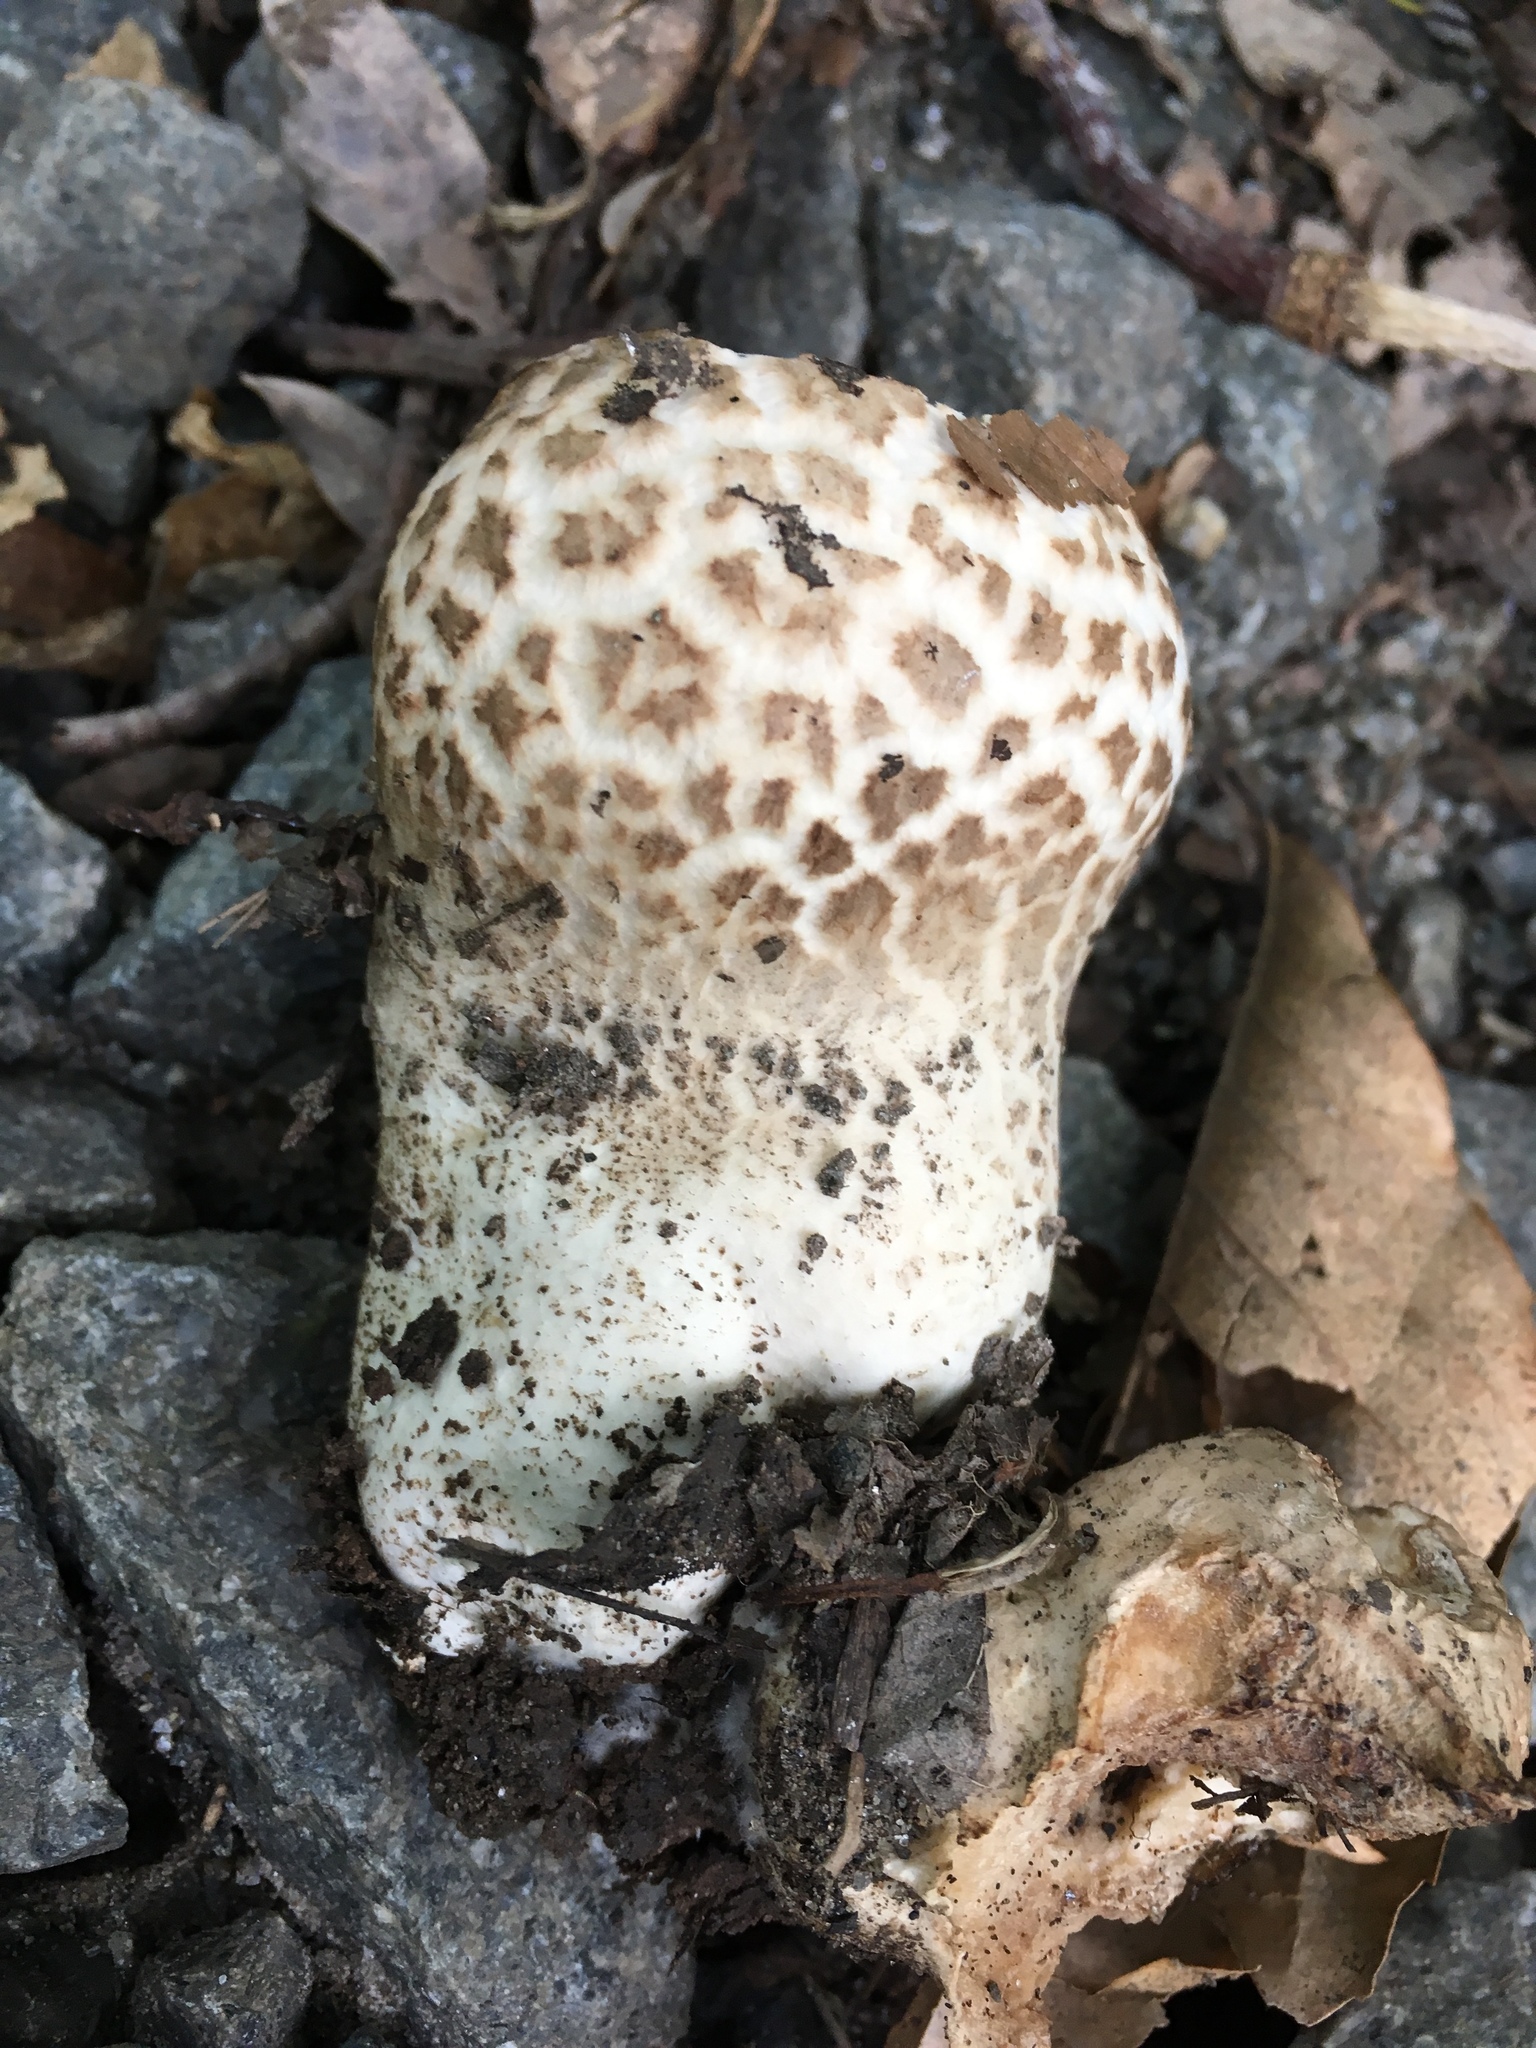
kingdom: Fungi
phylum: Basidiomycota
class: Agaricomycetes
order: Agaricales
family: Lycoperdaceae
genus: Calvatia
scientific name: Calvatia cyathiformis
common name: Purple-spored puffball
